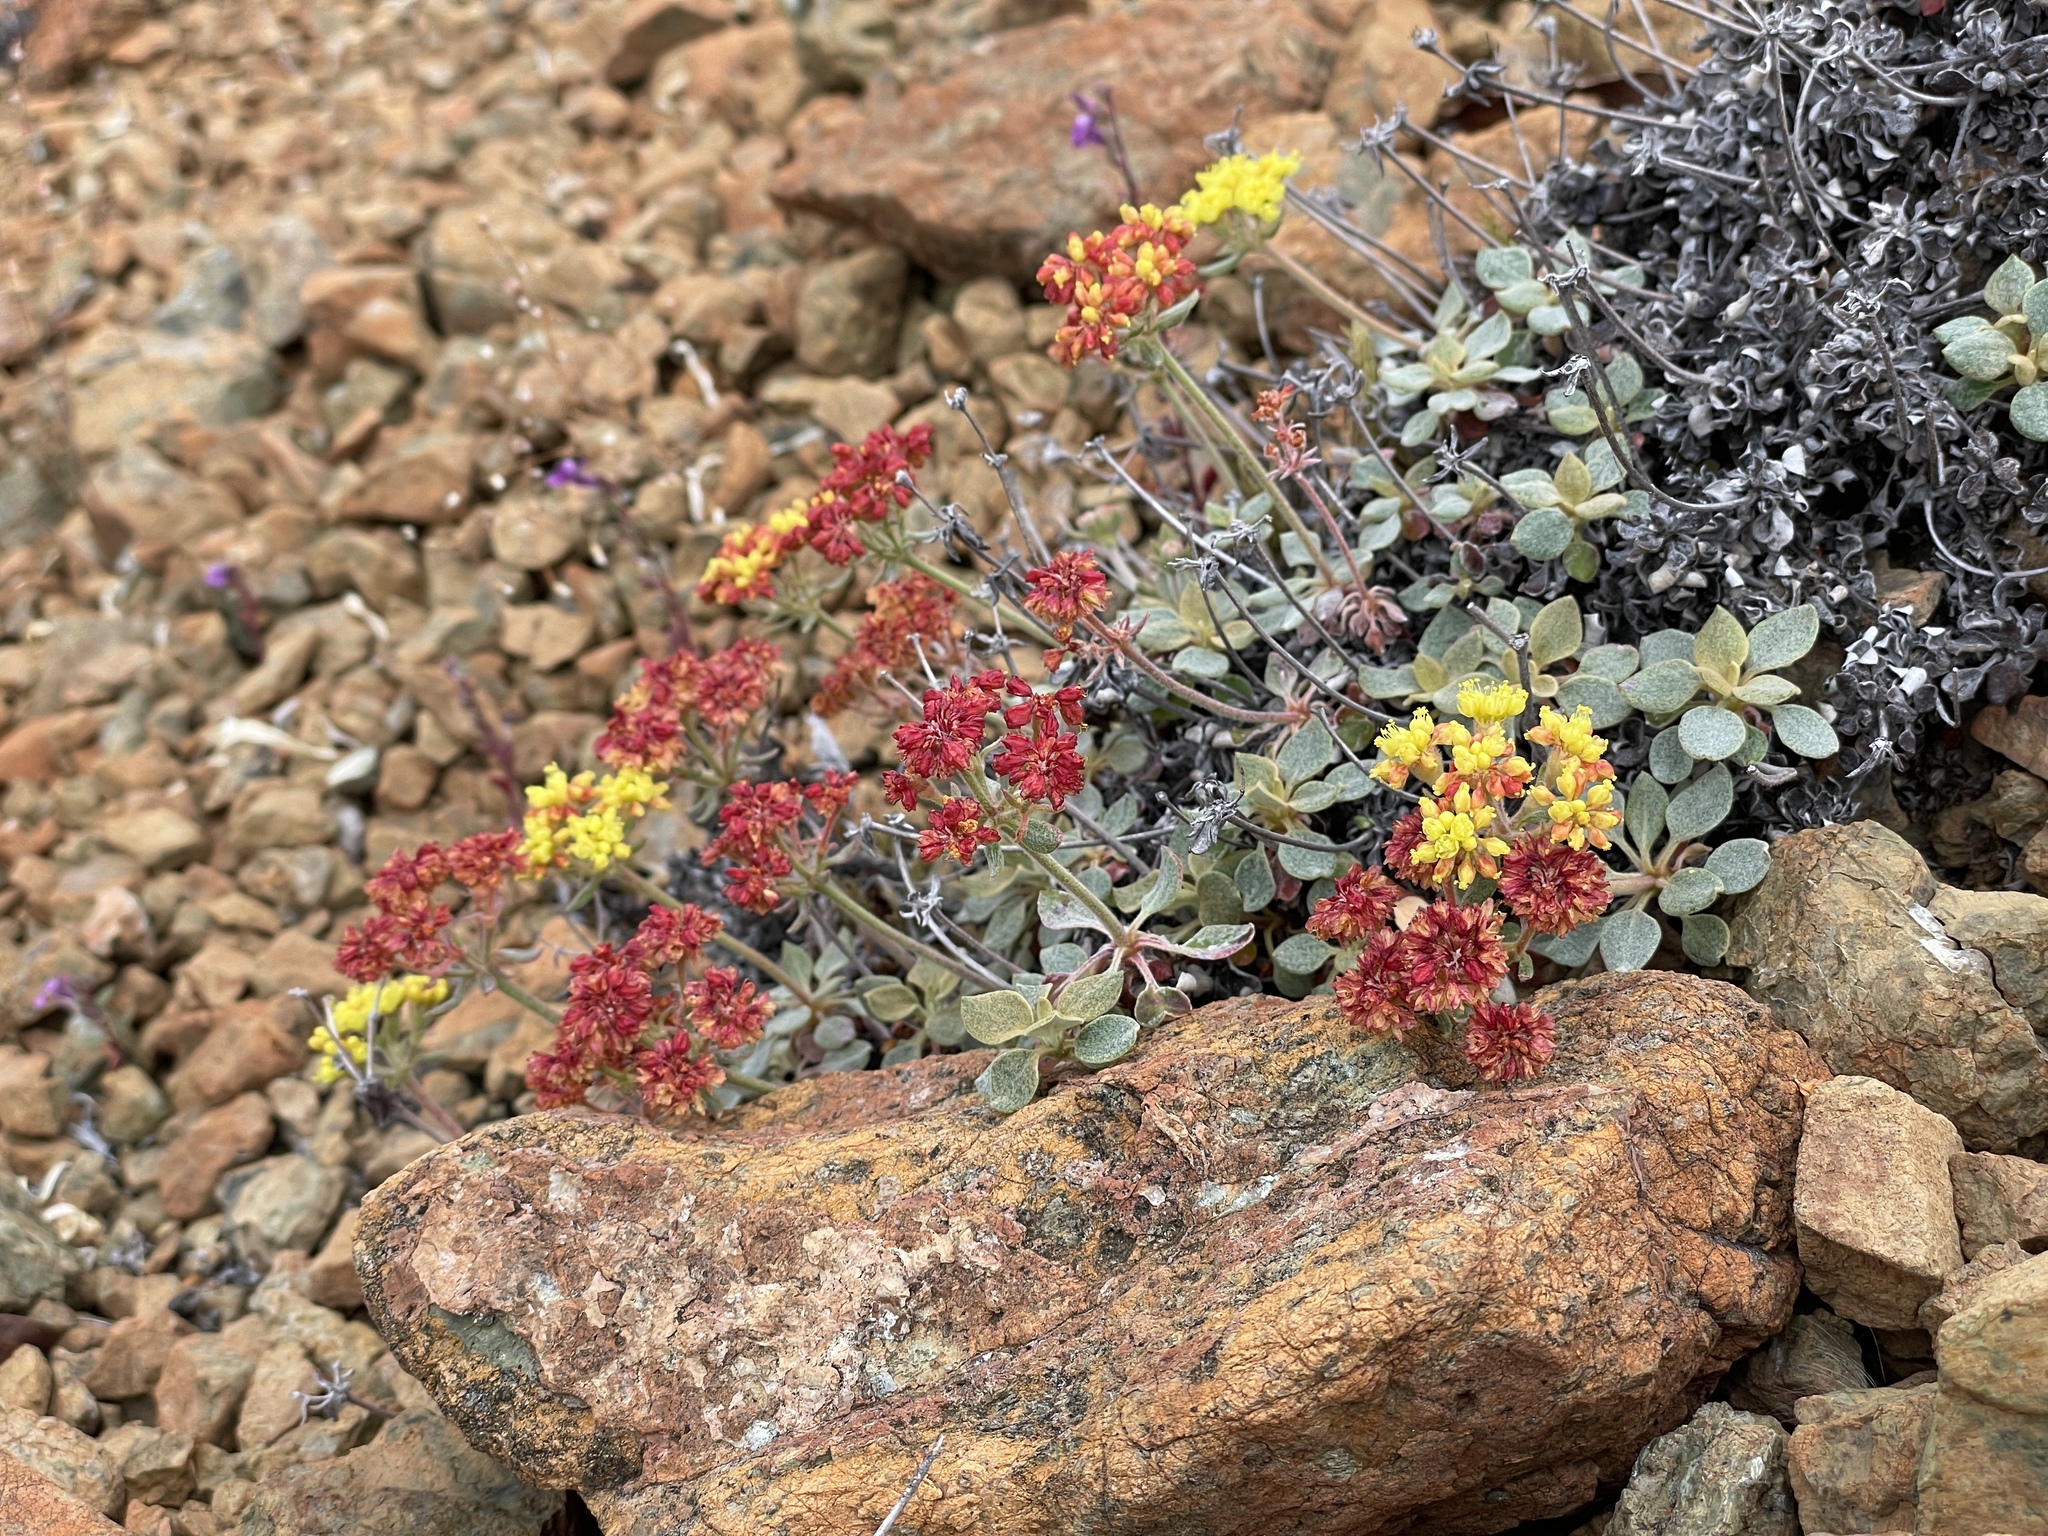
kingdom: Plantae
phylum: Tracheophyta
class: Magnoliopsida
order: Caryophyllales
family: Polygonaceae
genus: Eriogonum
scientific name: Eriogonum cedrorum
